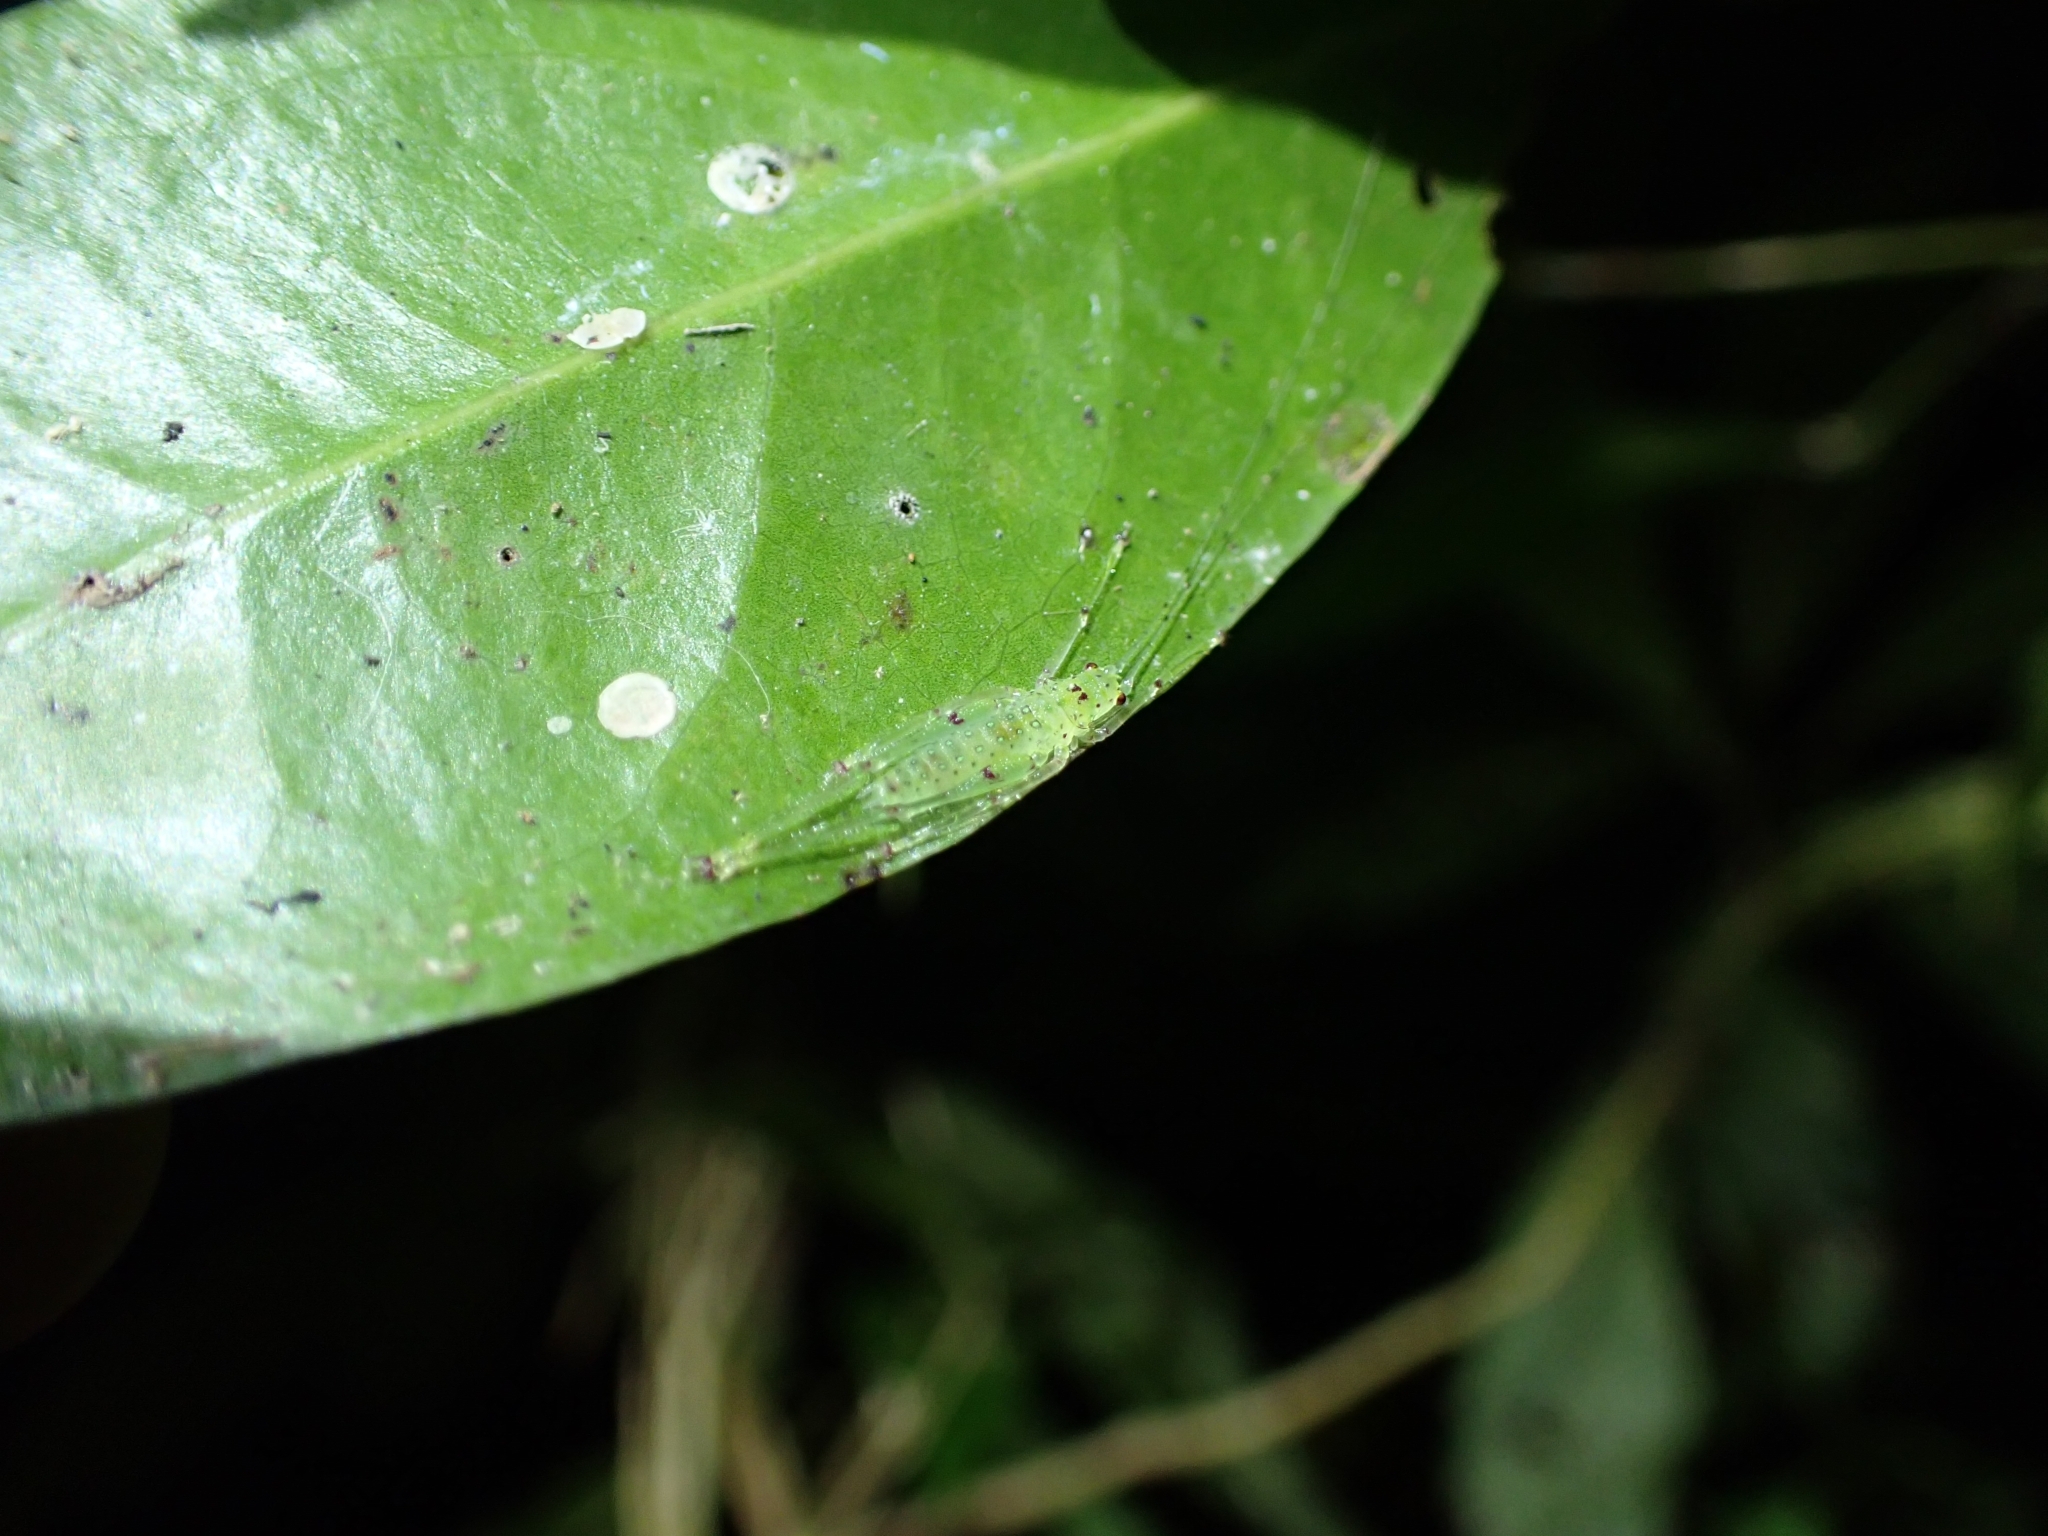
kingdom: Animalia
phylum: Arthropoda
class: Insecta
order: Orthoptera
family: Tettigoniidae
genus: Miniagraecia
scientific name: Miniagraecia milyali
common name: Tiny forest green katydid
